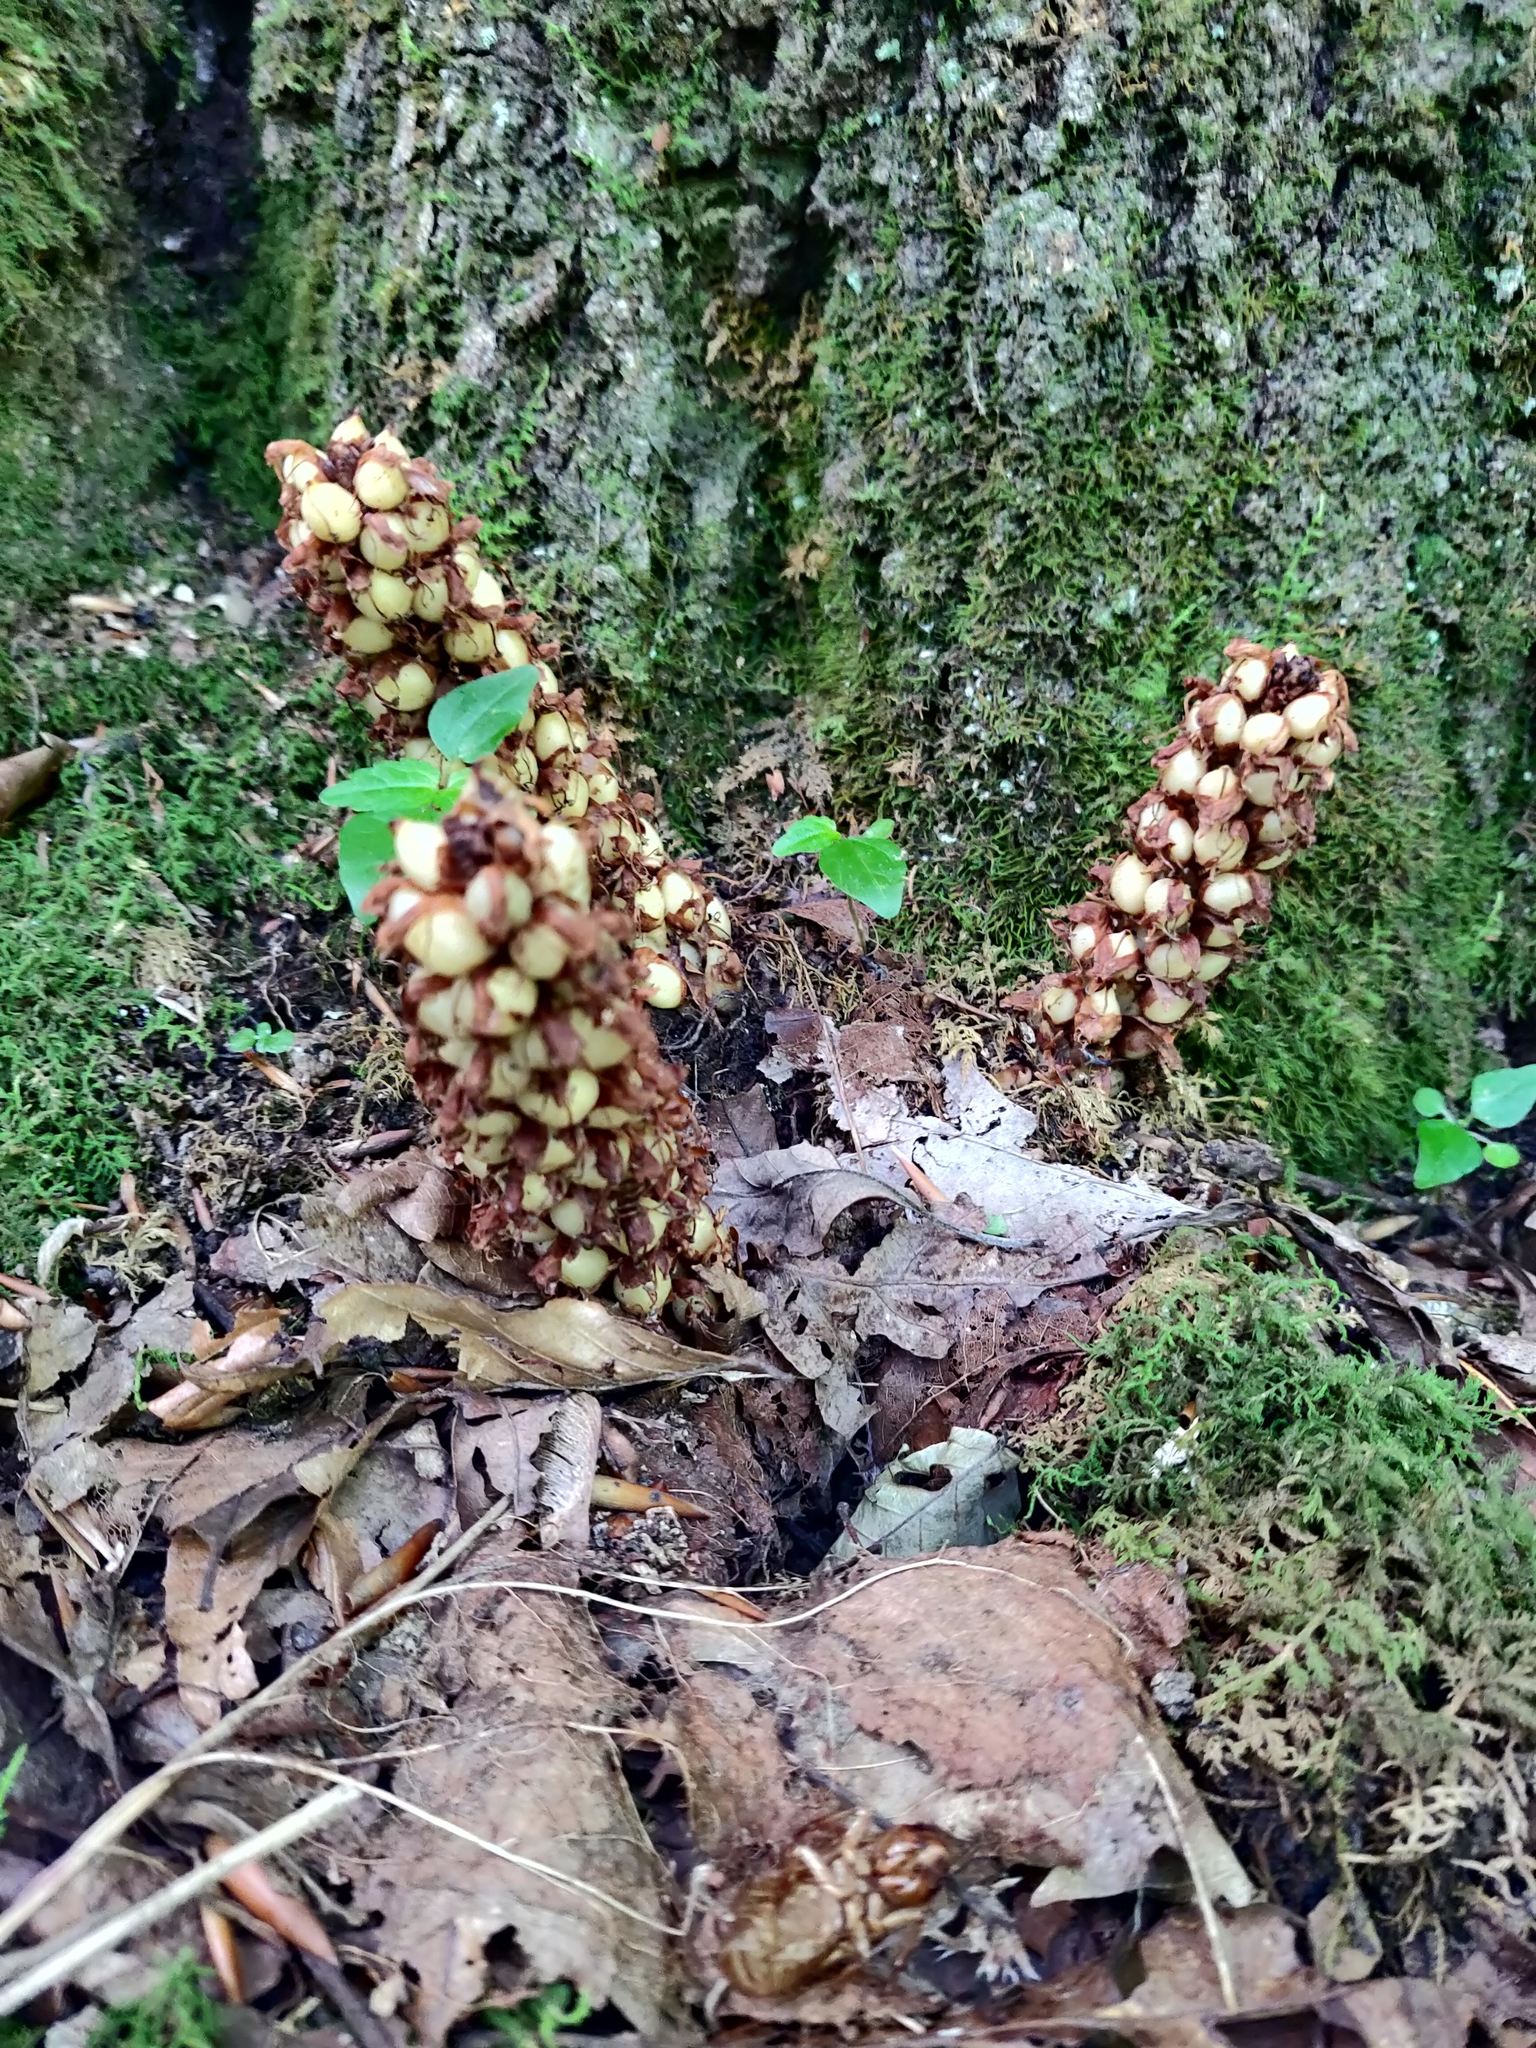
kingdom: Plantae
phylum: Tracheophyta
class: Magnoliopsida
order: Lamiales
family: Orobanchaceae
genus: Conopholis
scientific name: Conopholis americana
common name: American cancer-root
